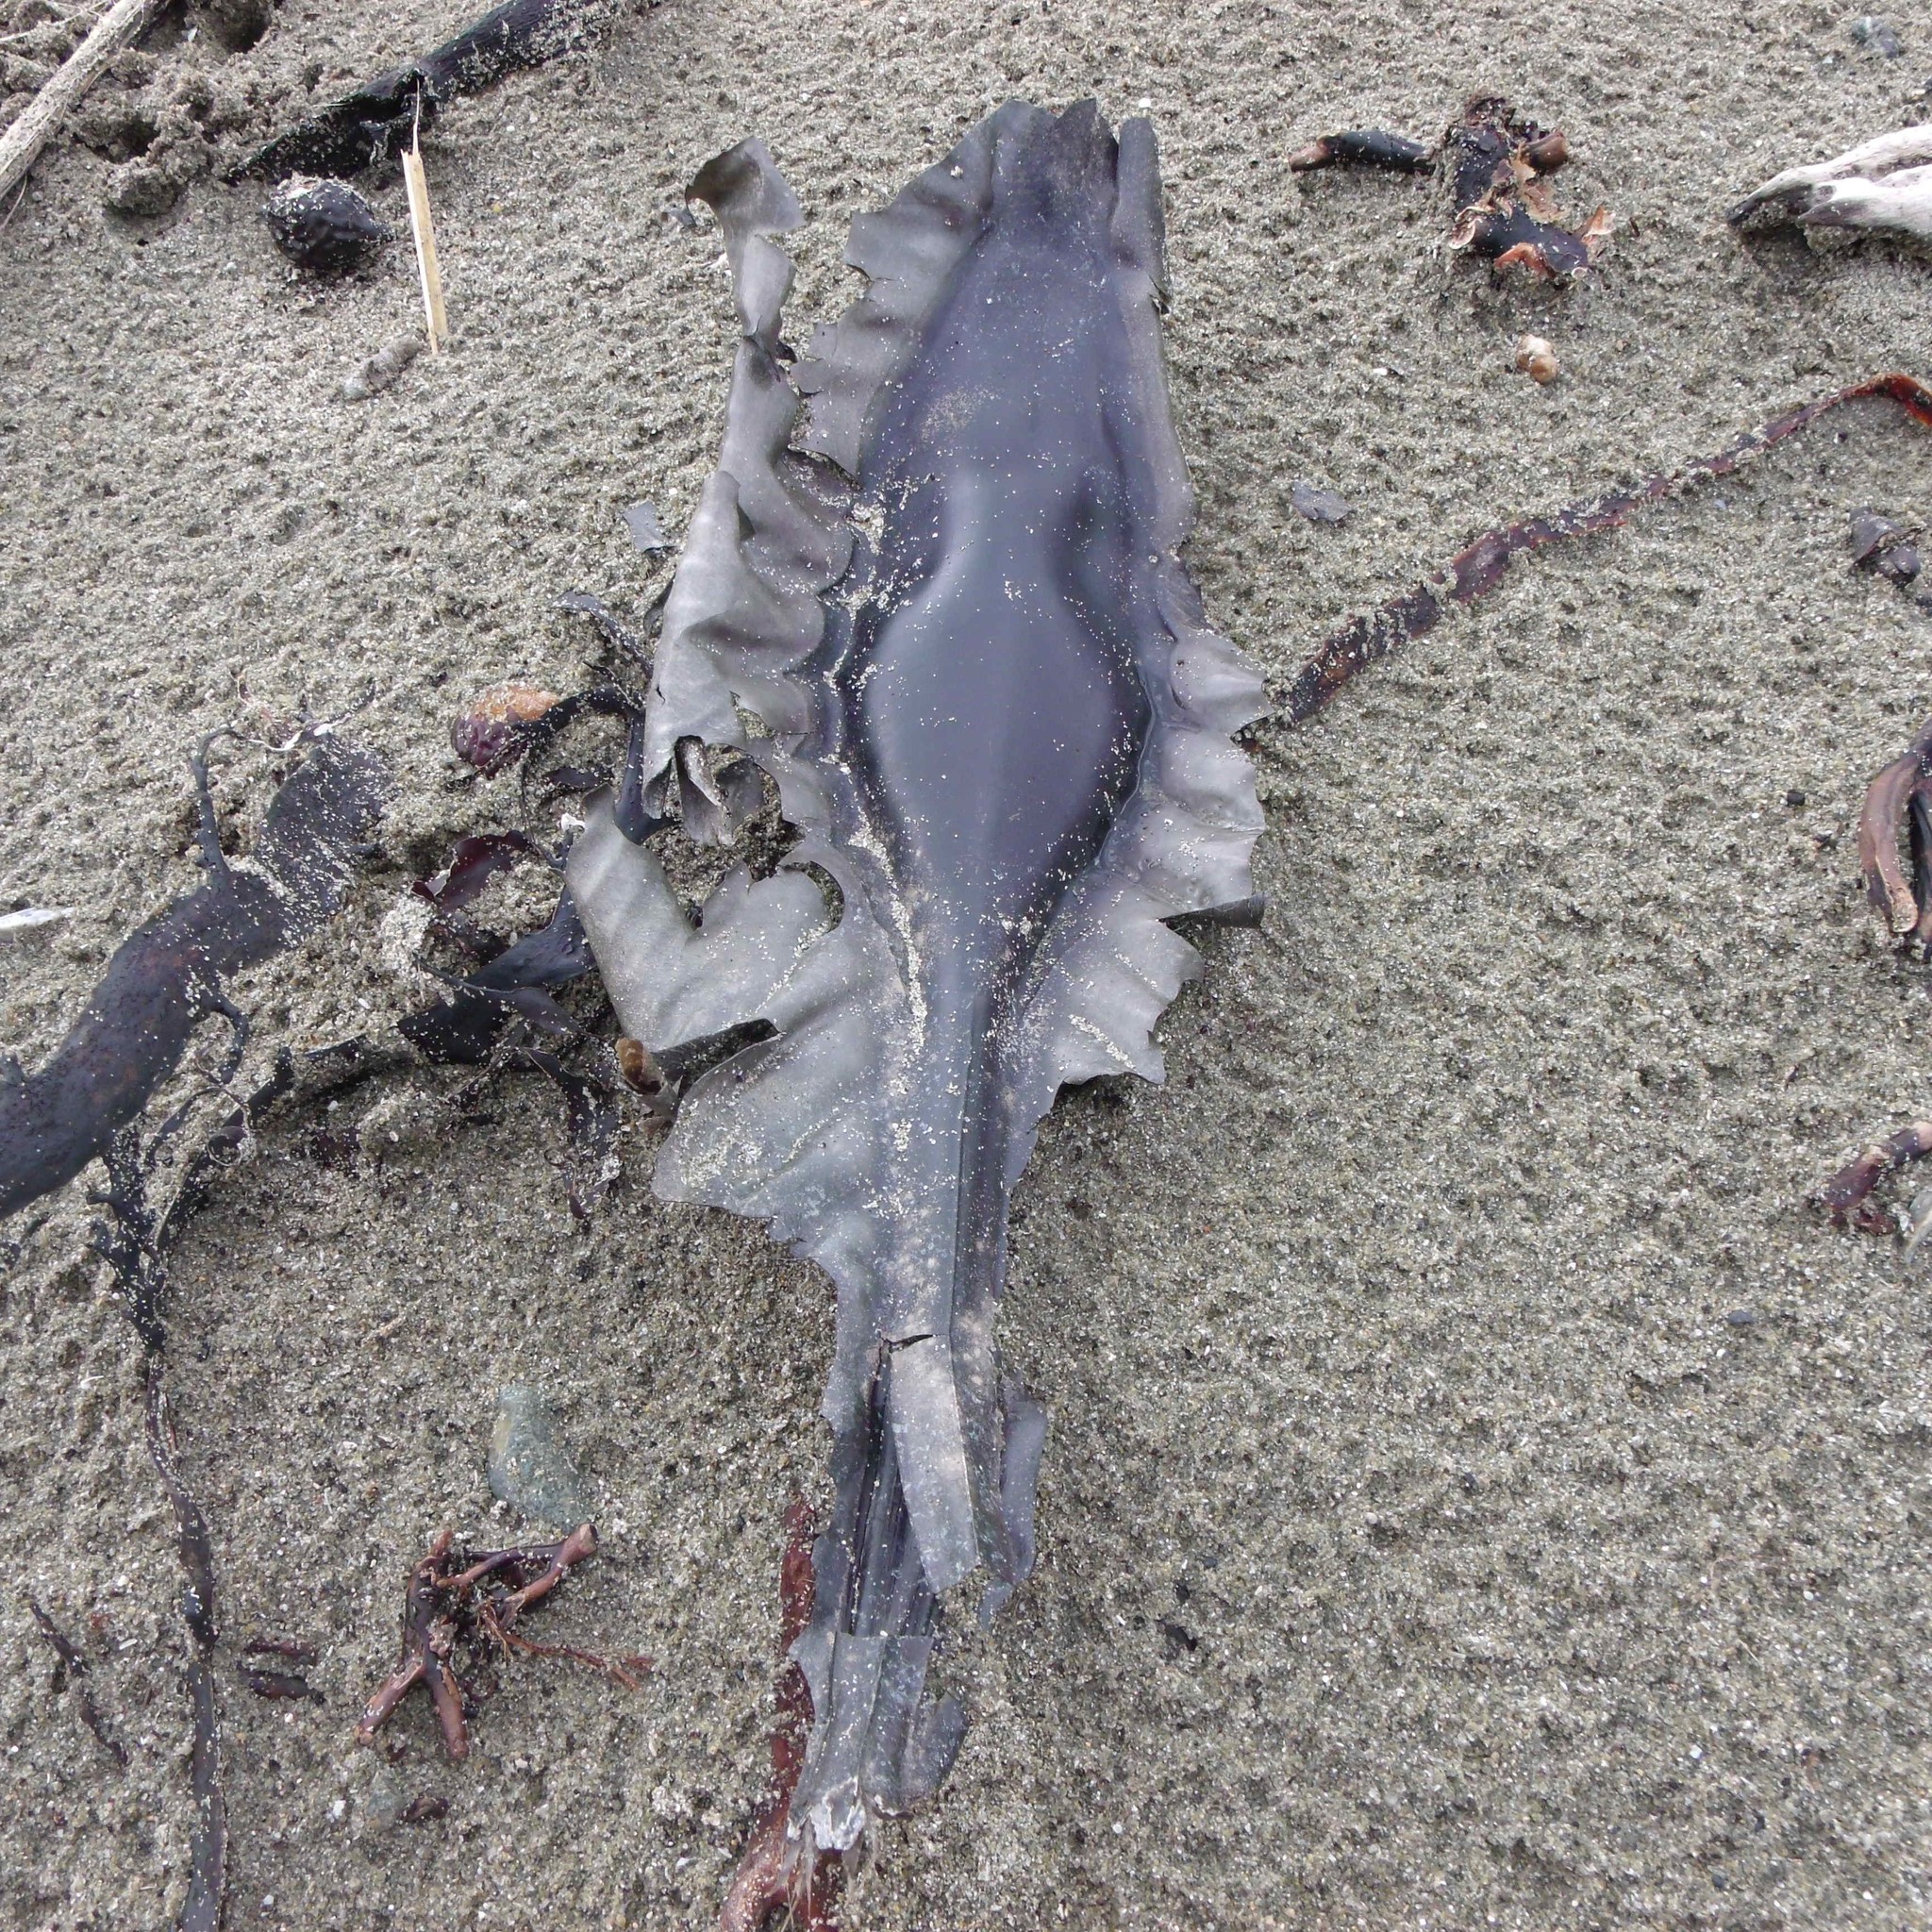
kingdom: Animalia
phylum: Chordata
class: Holocephali
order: Chimaeriformes
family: Callorhinchidae
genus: Callorhinchus
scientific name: Callorhinchus milii
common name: Elephant fish
